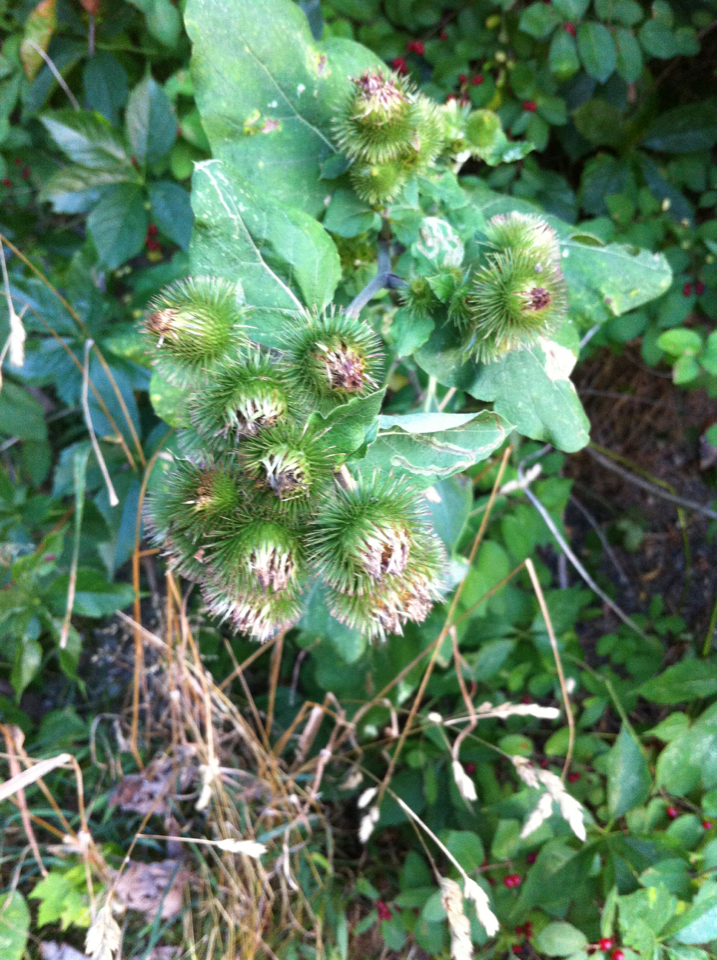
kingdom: Plantae
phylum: Tracheophyta
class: Magnoliopsida
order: Asterales
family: Asteraceae
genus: Arctium
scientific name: Arctium minus
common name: Lesser burdock
